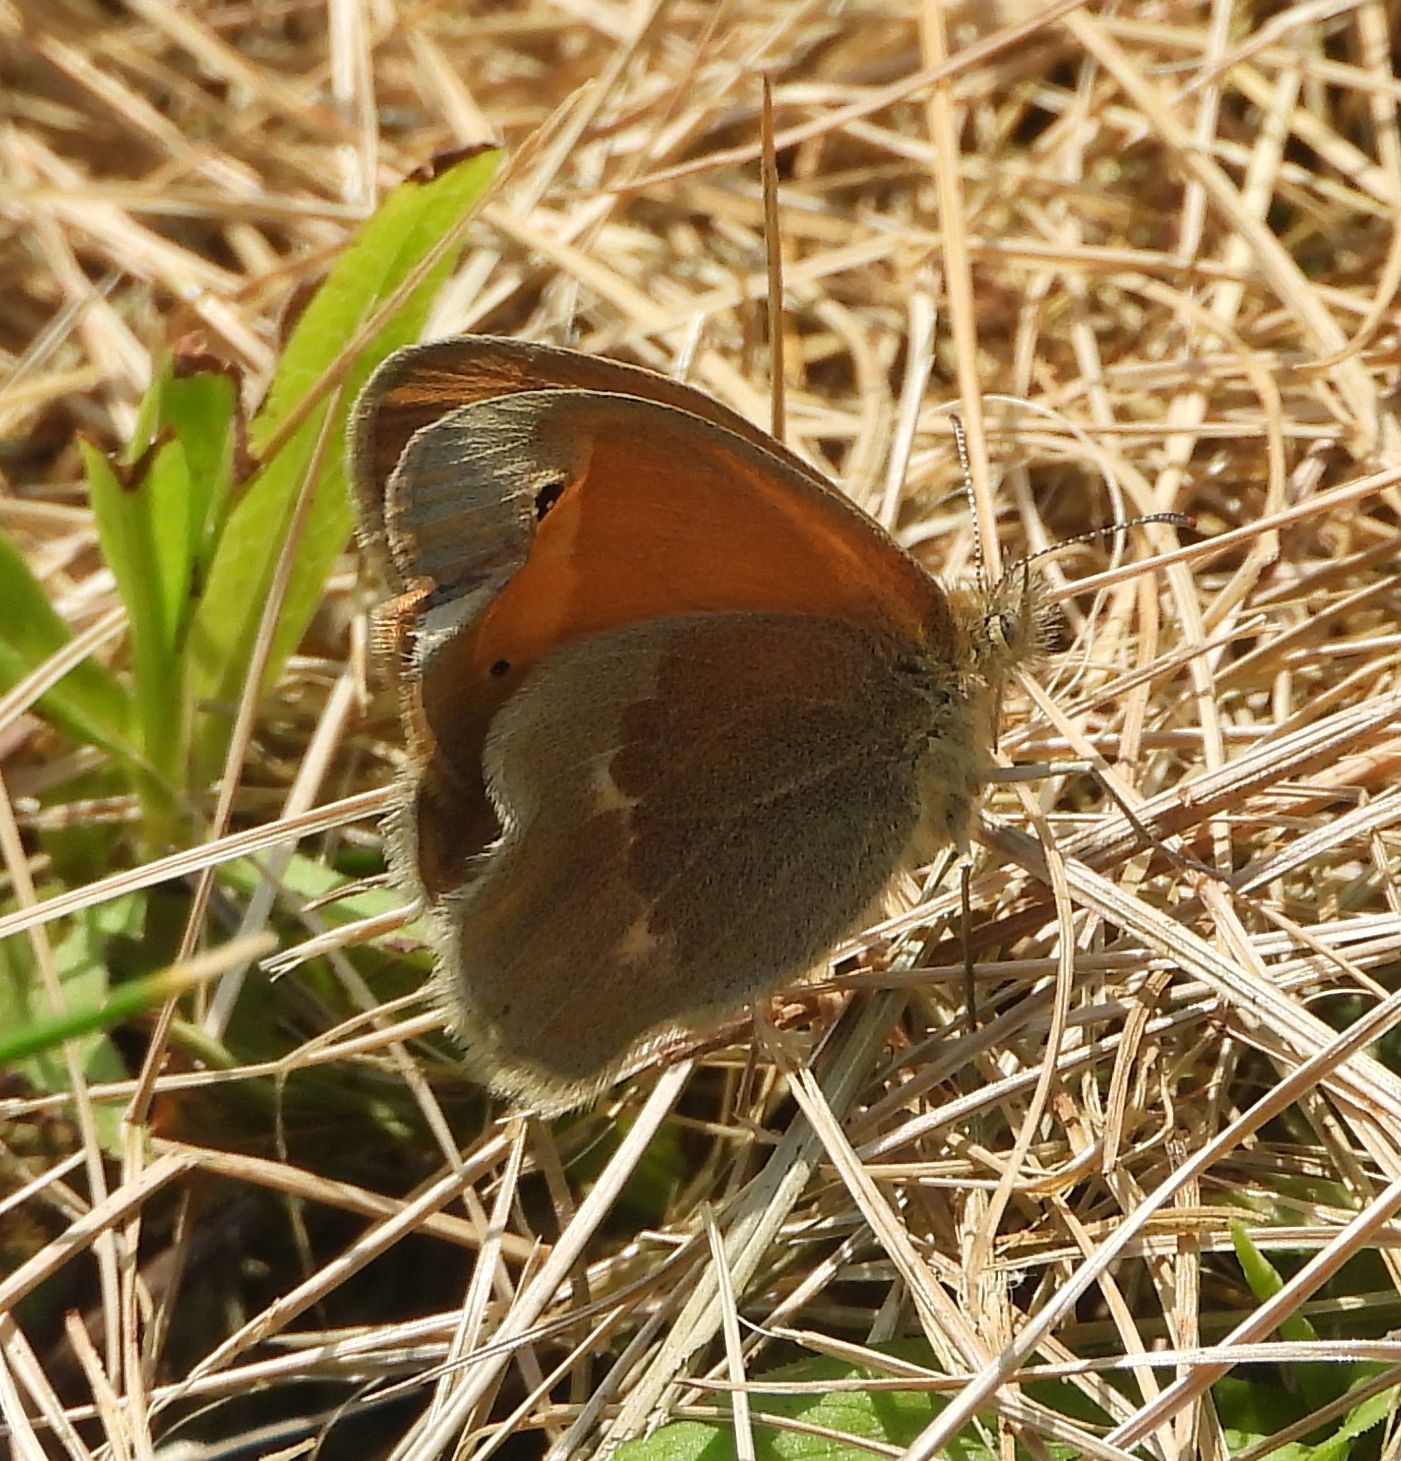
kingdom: Animalia
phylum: Arthropoda
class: Insecta
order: Lepidoptera
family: Nymphalidae
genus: Coenonympha
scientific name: Coenonympha california
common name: Common ringlet
